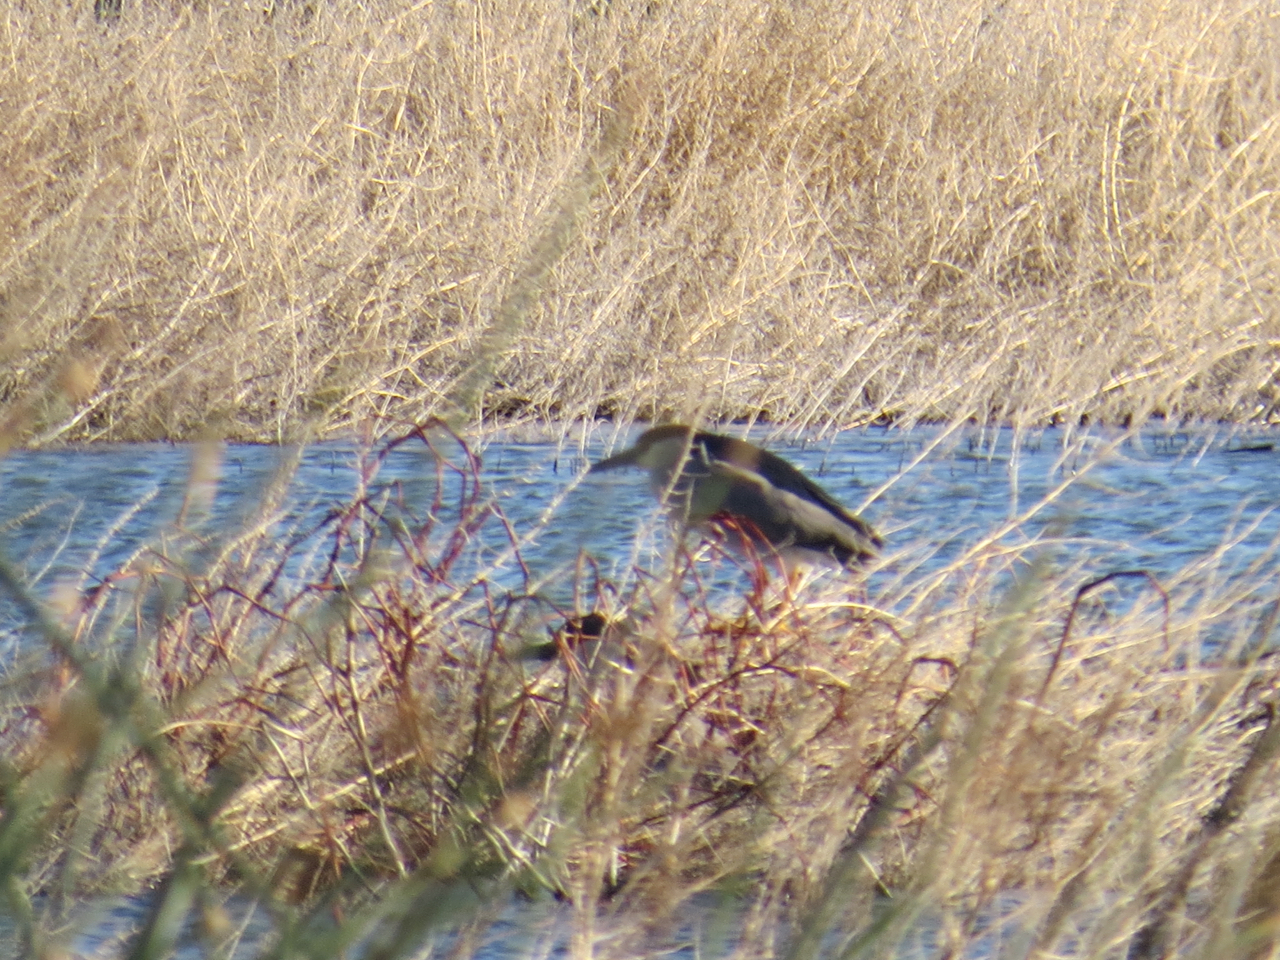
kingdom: Animalia
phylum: Chordata
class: Aves
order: Pelecaniformes
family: Ardeidae
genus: Nycticorax
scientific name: Nycticorax nycticorax
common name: Black-crowned night heron
